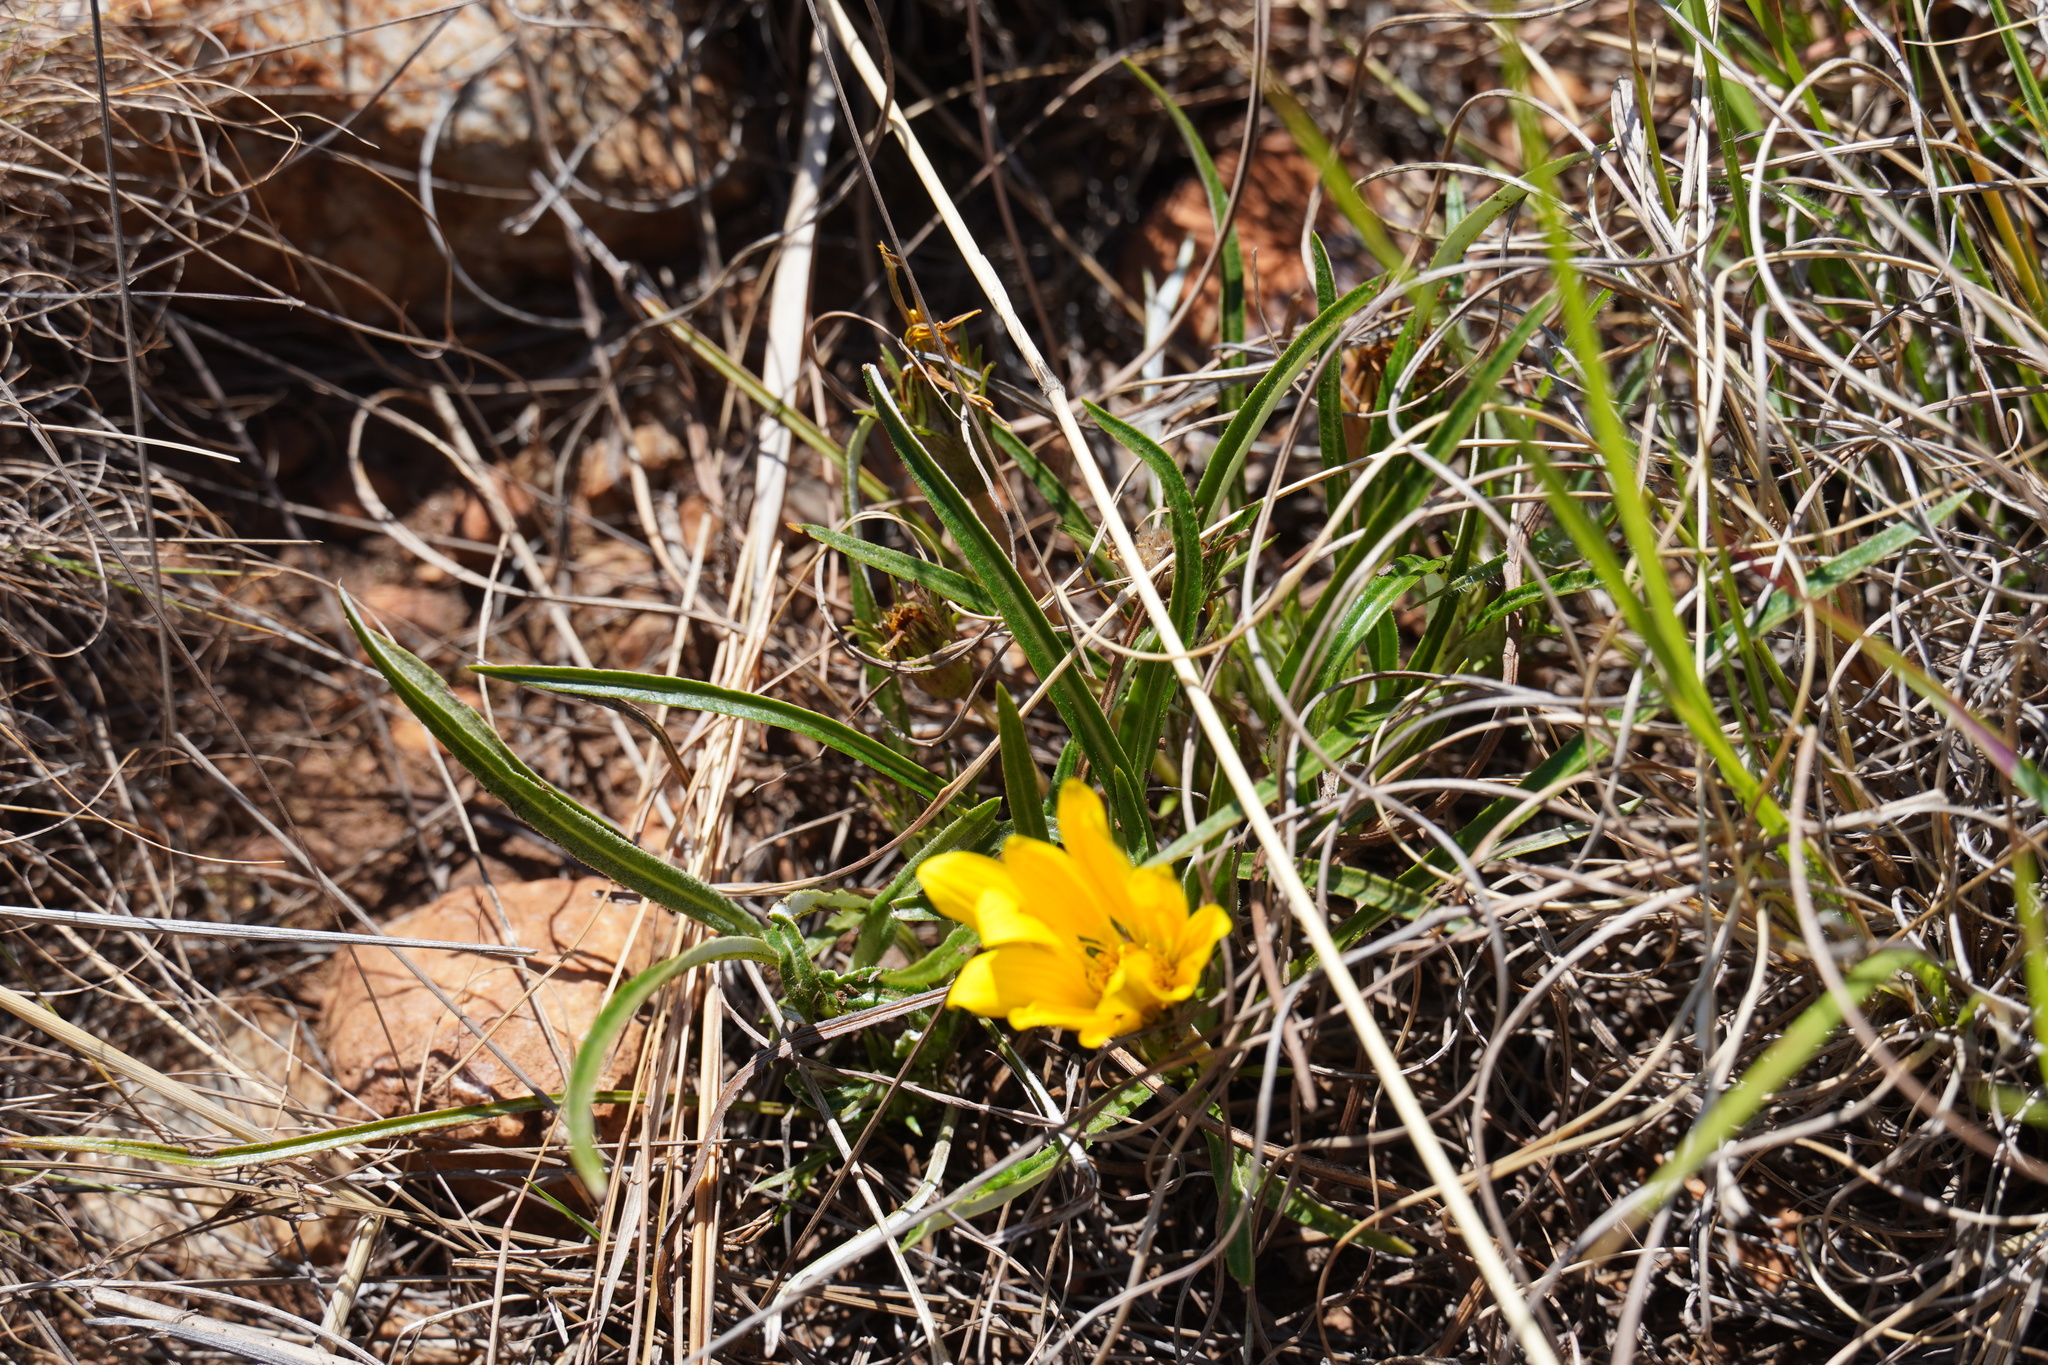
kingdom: Plantae
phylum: Tracheophyta
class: Magnoliopsida
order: Asterales
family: Asteraceae
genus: Gazania
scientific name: Gazania krebsiana
